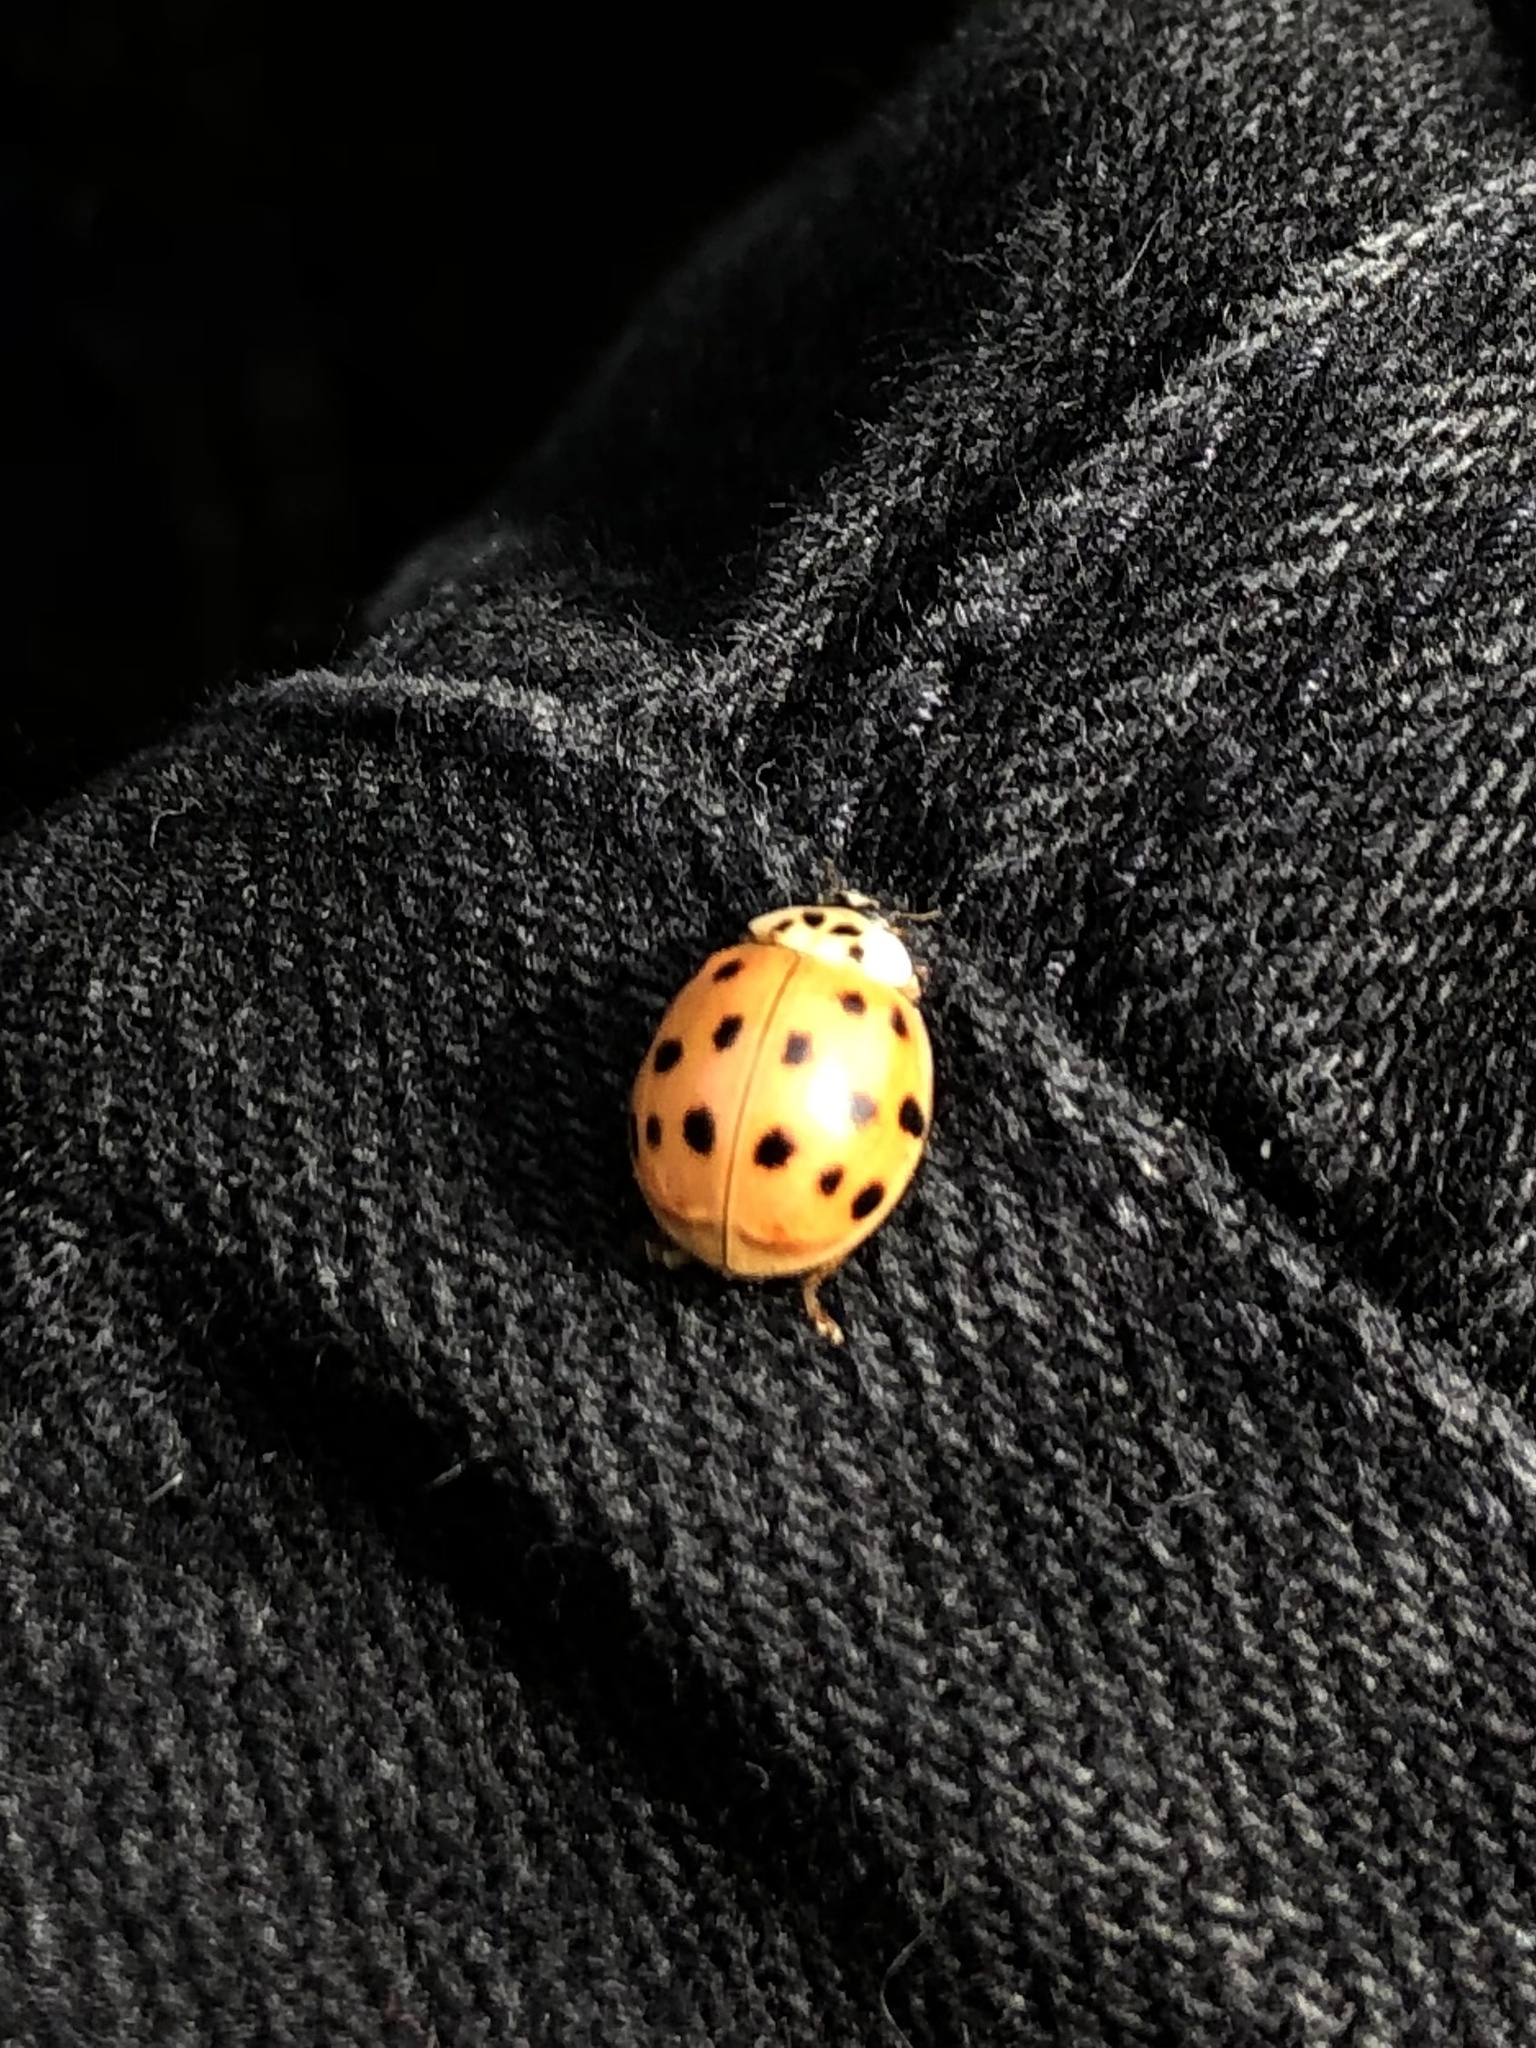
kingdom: Animalia
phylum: Arthropoda
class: Insecta
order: Coleoptera
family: Coccinellidae
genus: Harmonia
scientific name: Harmonia axyridis
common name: Harlequin ladybird
